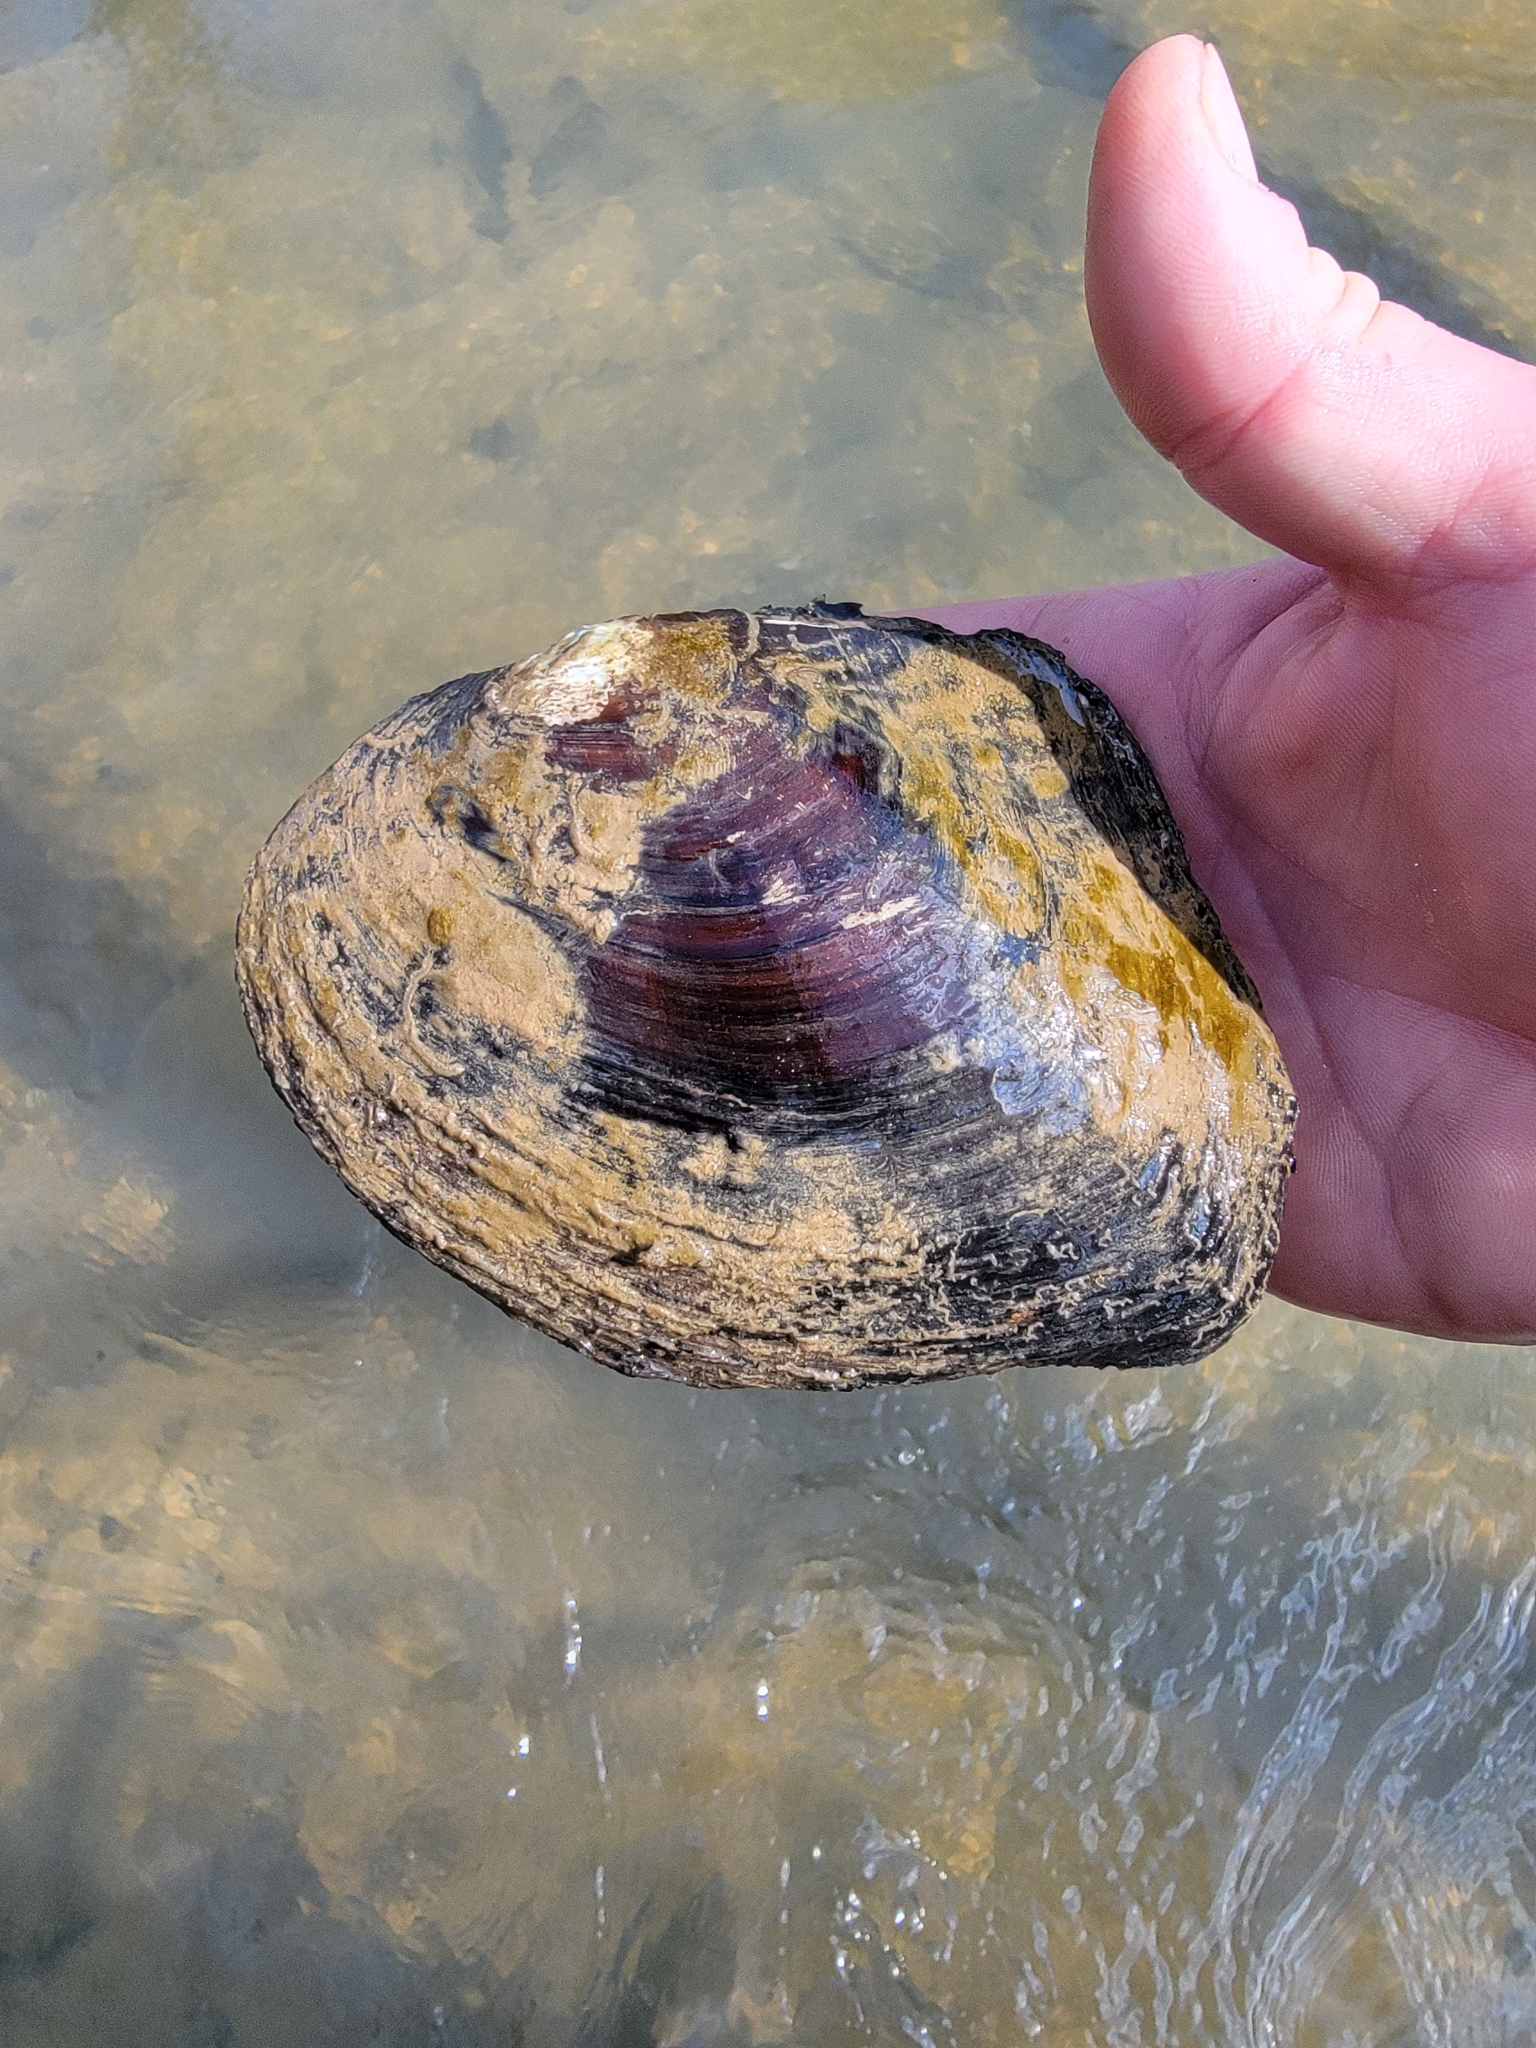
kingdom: Animalia
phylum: Mollusca
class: Bivalvia
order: Unionida
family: Unionidae
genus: Lasmigona
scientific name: Lasmigona complanata
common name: White heelsplitter
